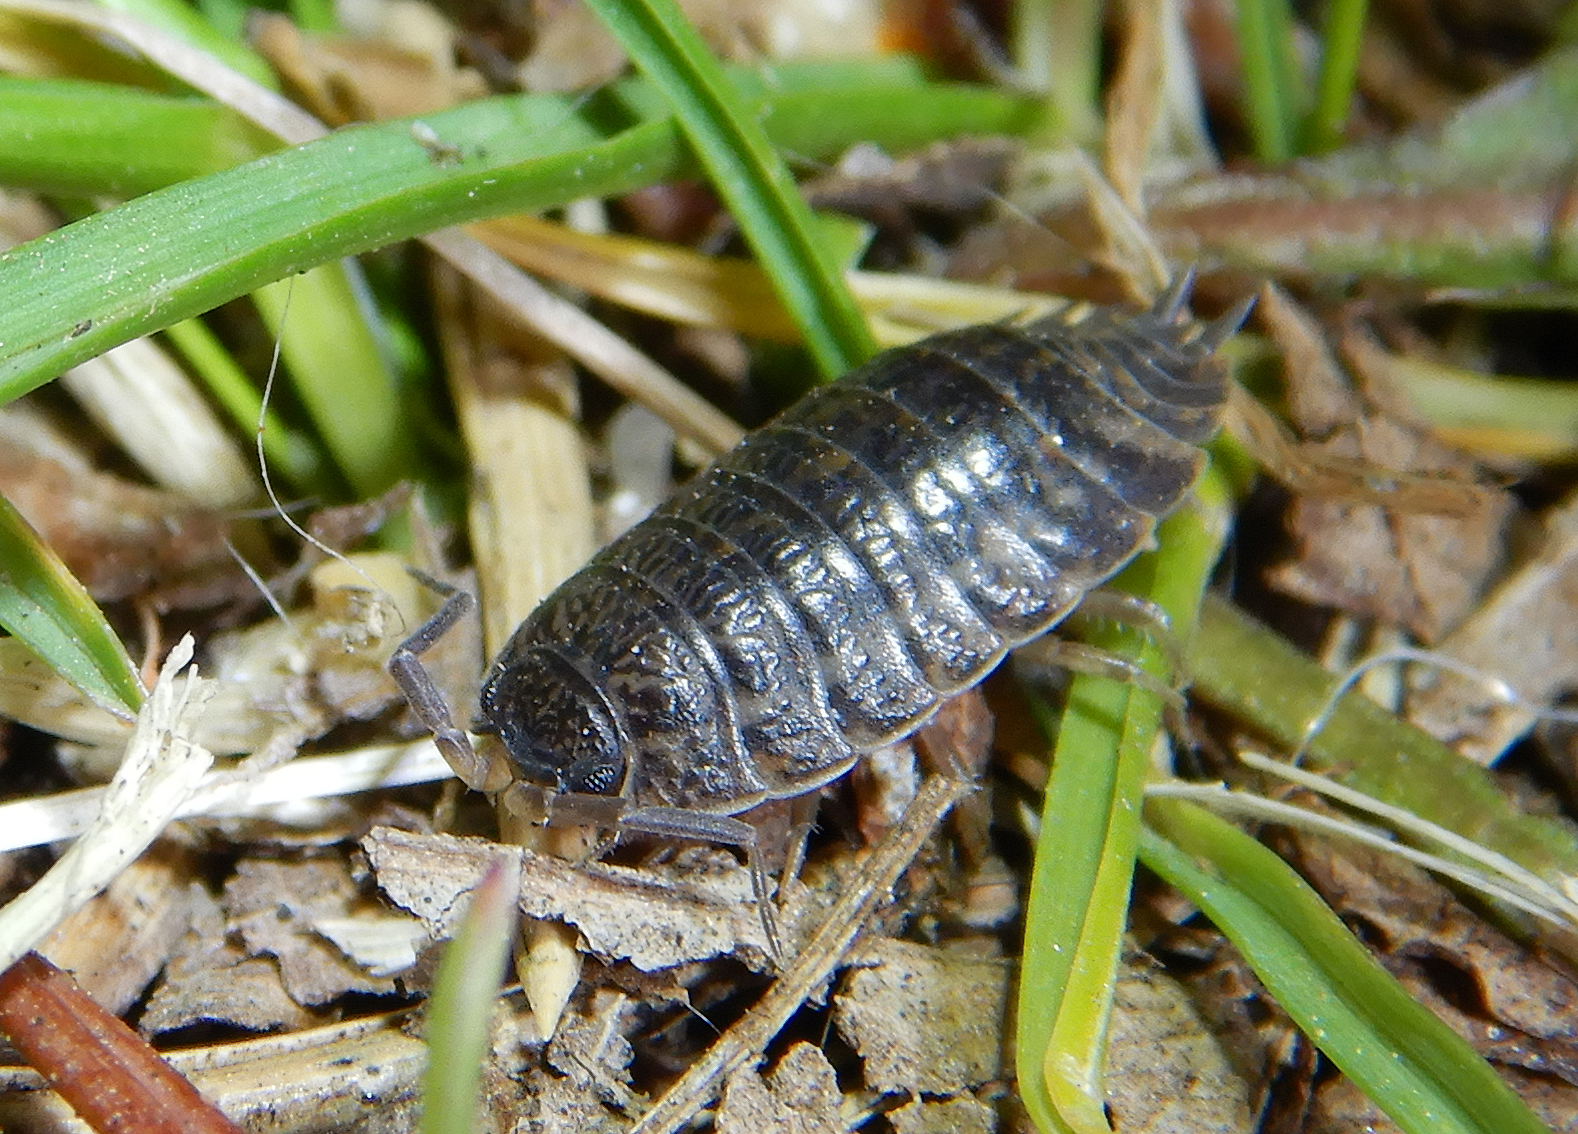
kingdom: Animalia
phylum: Arthropoda
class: Malacostraca
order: Isopoda
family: Trachelipodidae
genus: Trachelipus
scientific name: Trachelipus rathkii
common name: Isopod
